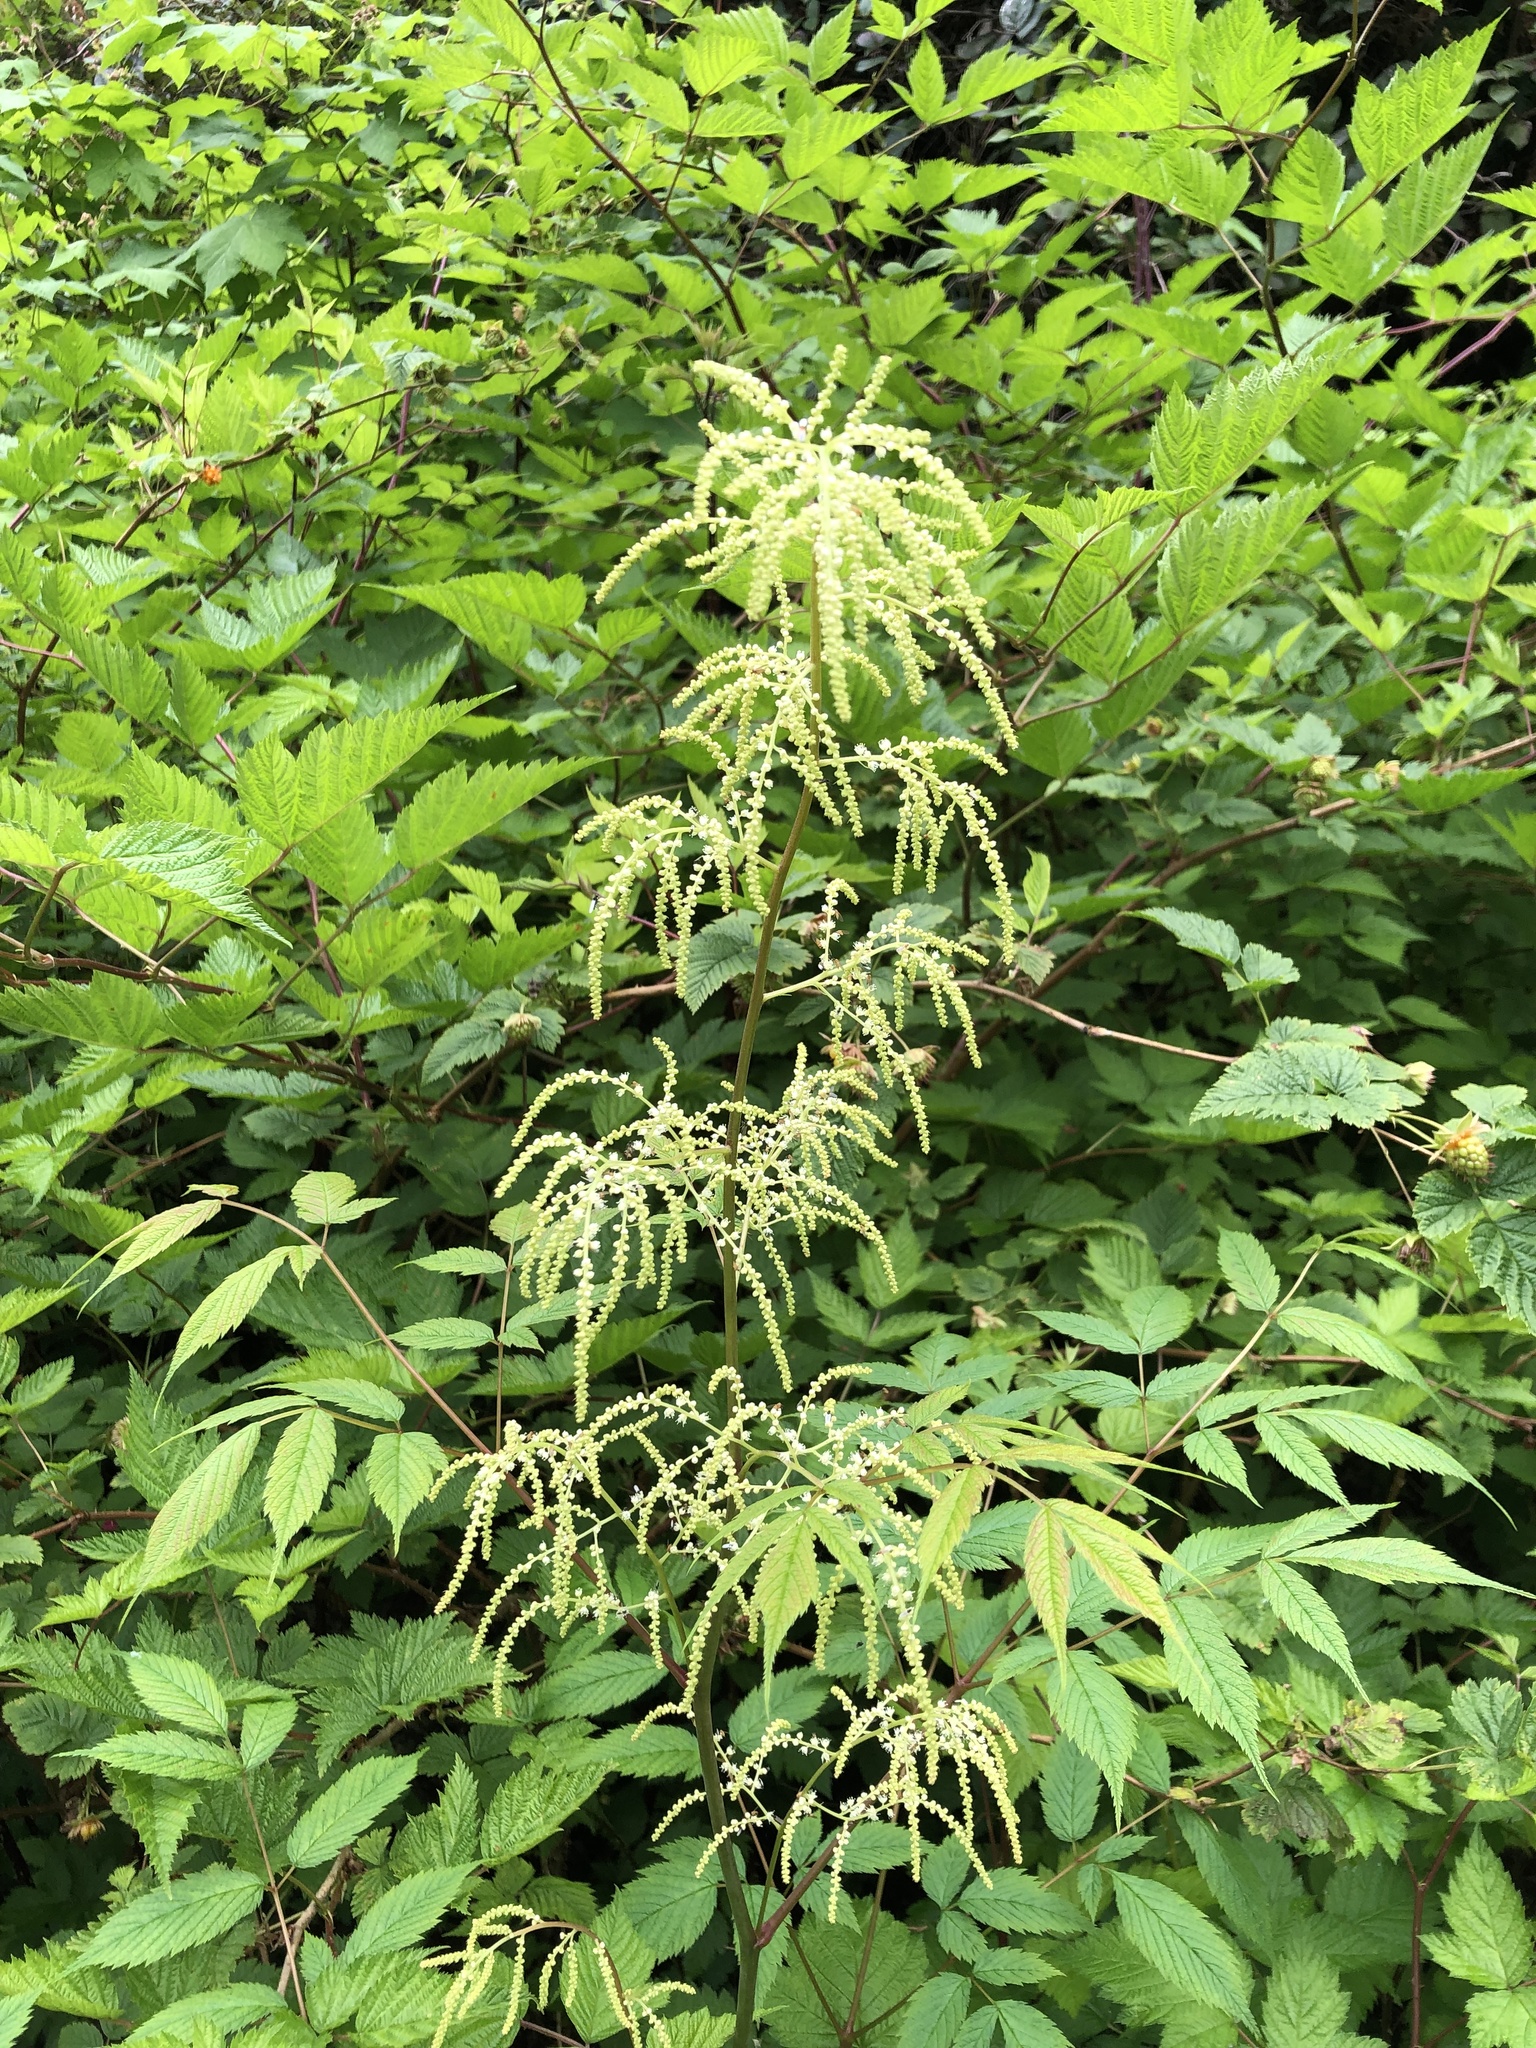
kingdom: Plantae
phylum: Tracheophyta
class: Magnoliopsida
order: Rosales
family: Rosaceae
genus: Aruncus
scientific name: Aruncus dioicus
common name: Buck's-beard
